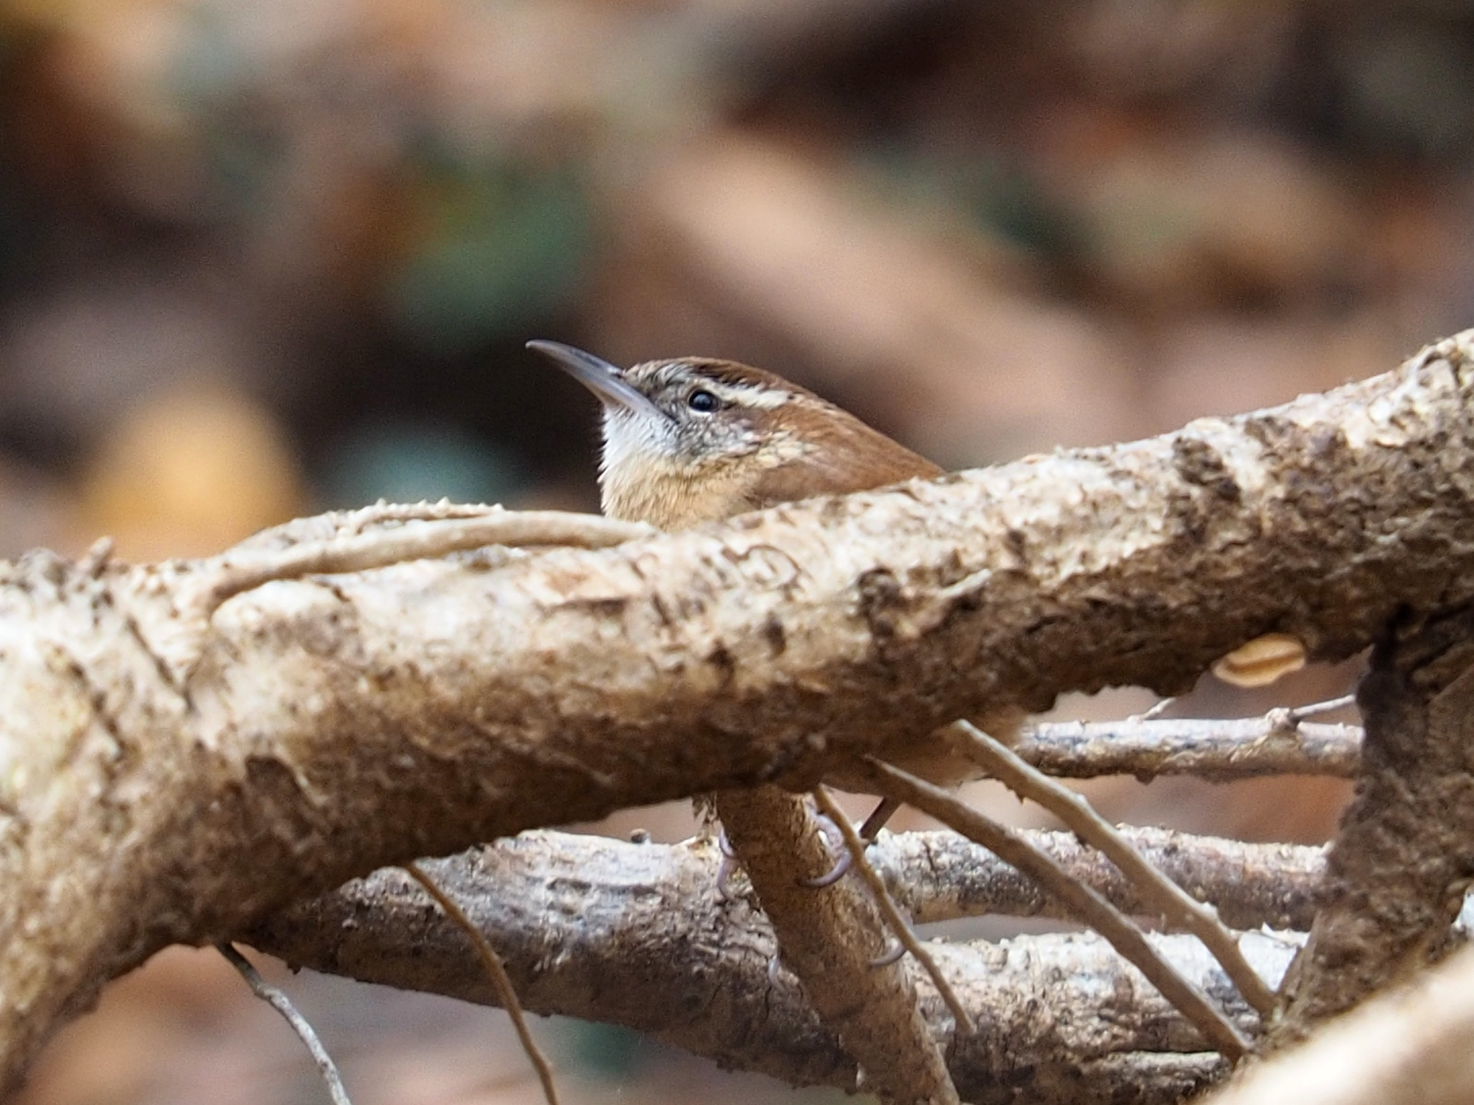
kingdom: Animalia
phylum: Chordata
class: Aves
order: Passeriformes
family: Troglodytidae
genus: Thryothorus
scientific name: Thryothorus ludovicianus
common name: Carolina wren
